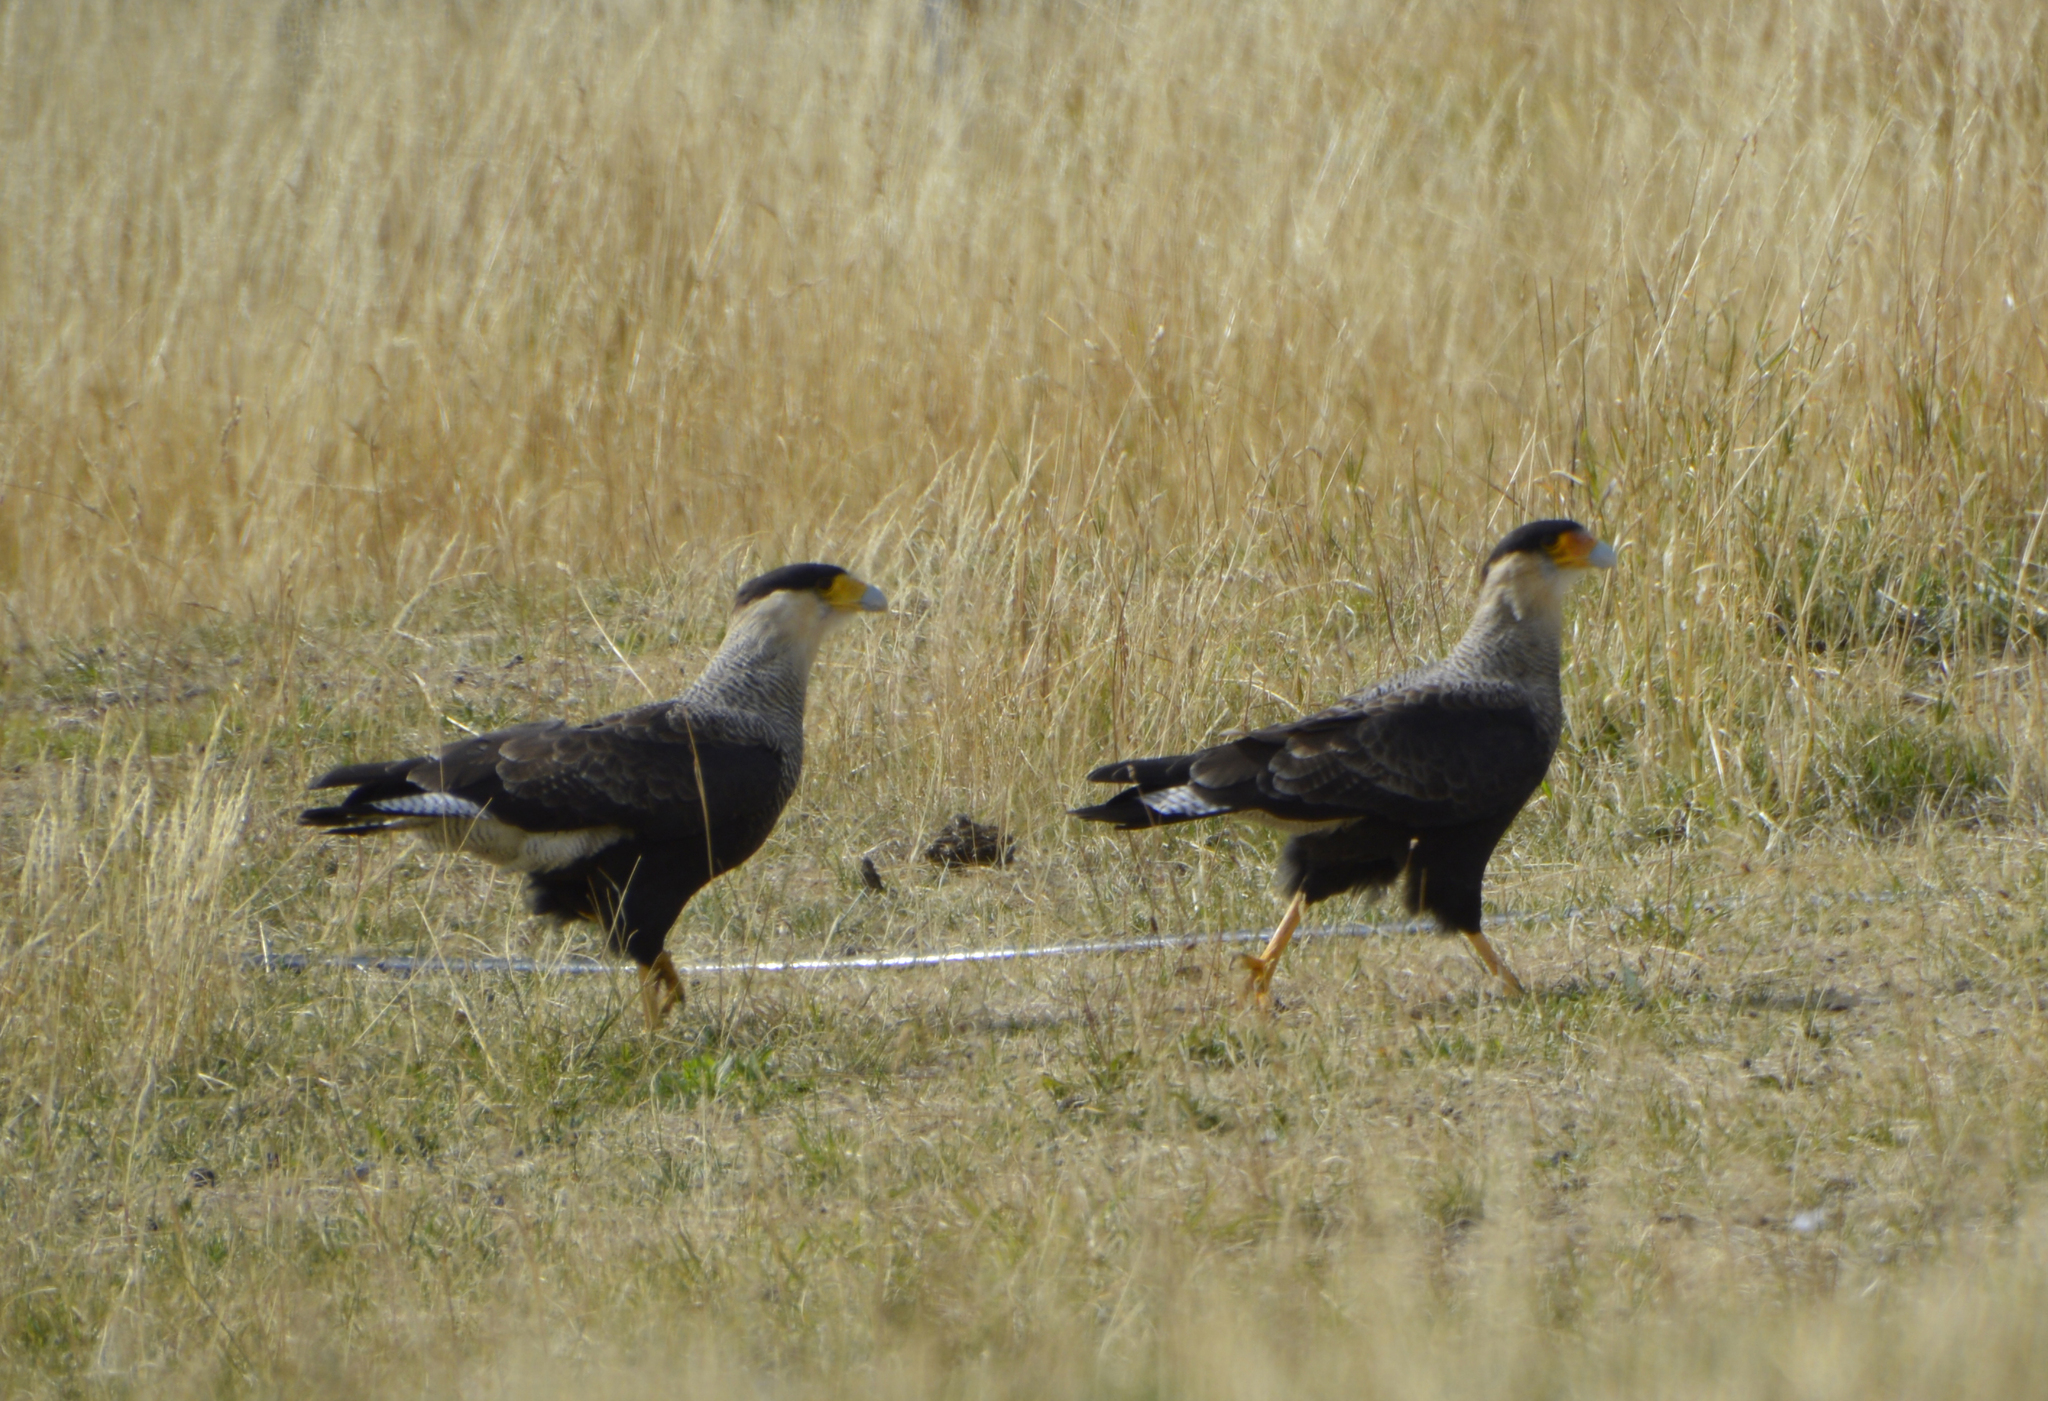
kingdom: Animalia
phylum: Chordata
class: Aves
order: Falconiformes
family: Falconidae
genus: Caracara
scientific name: Caracara plancus
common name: Southern caracara
